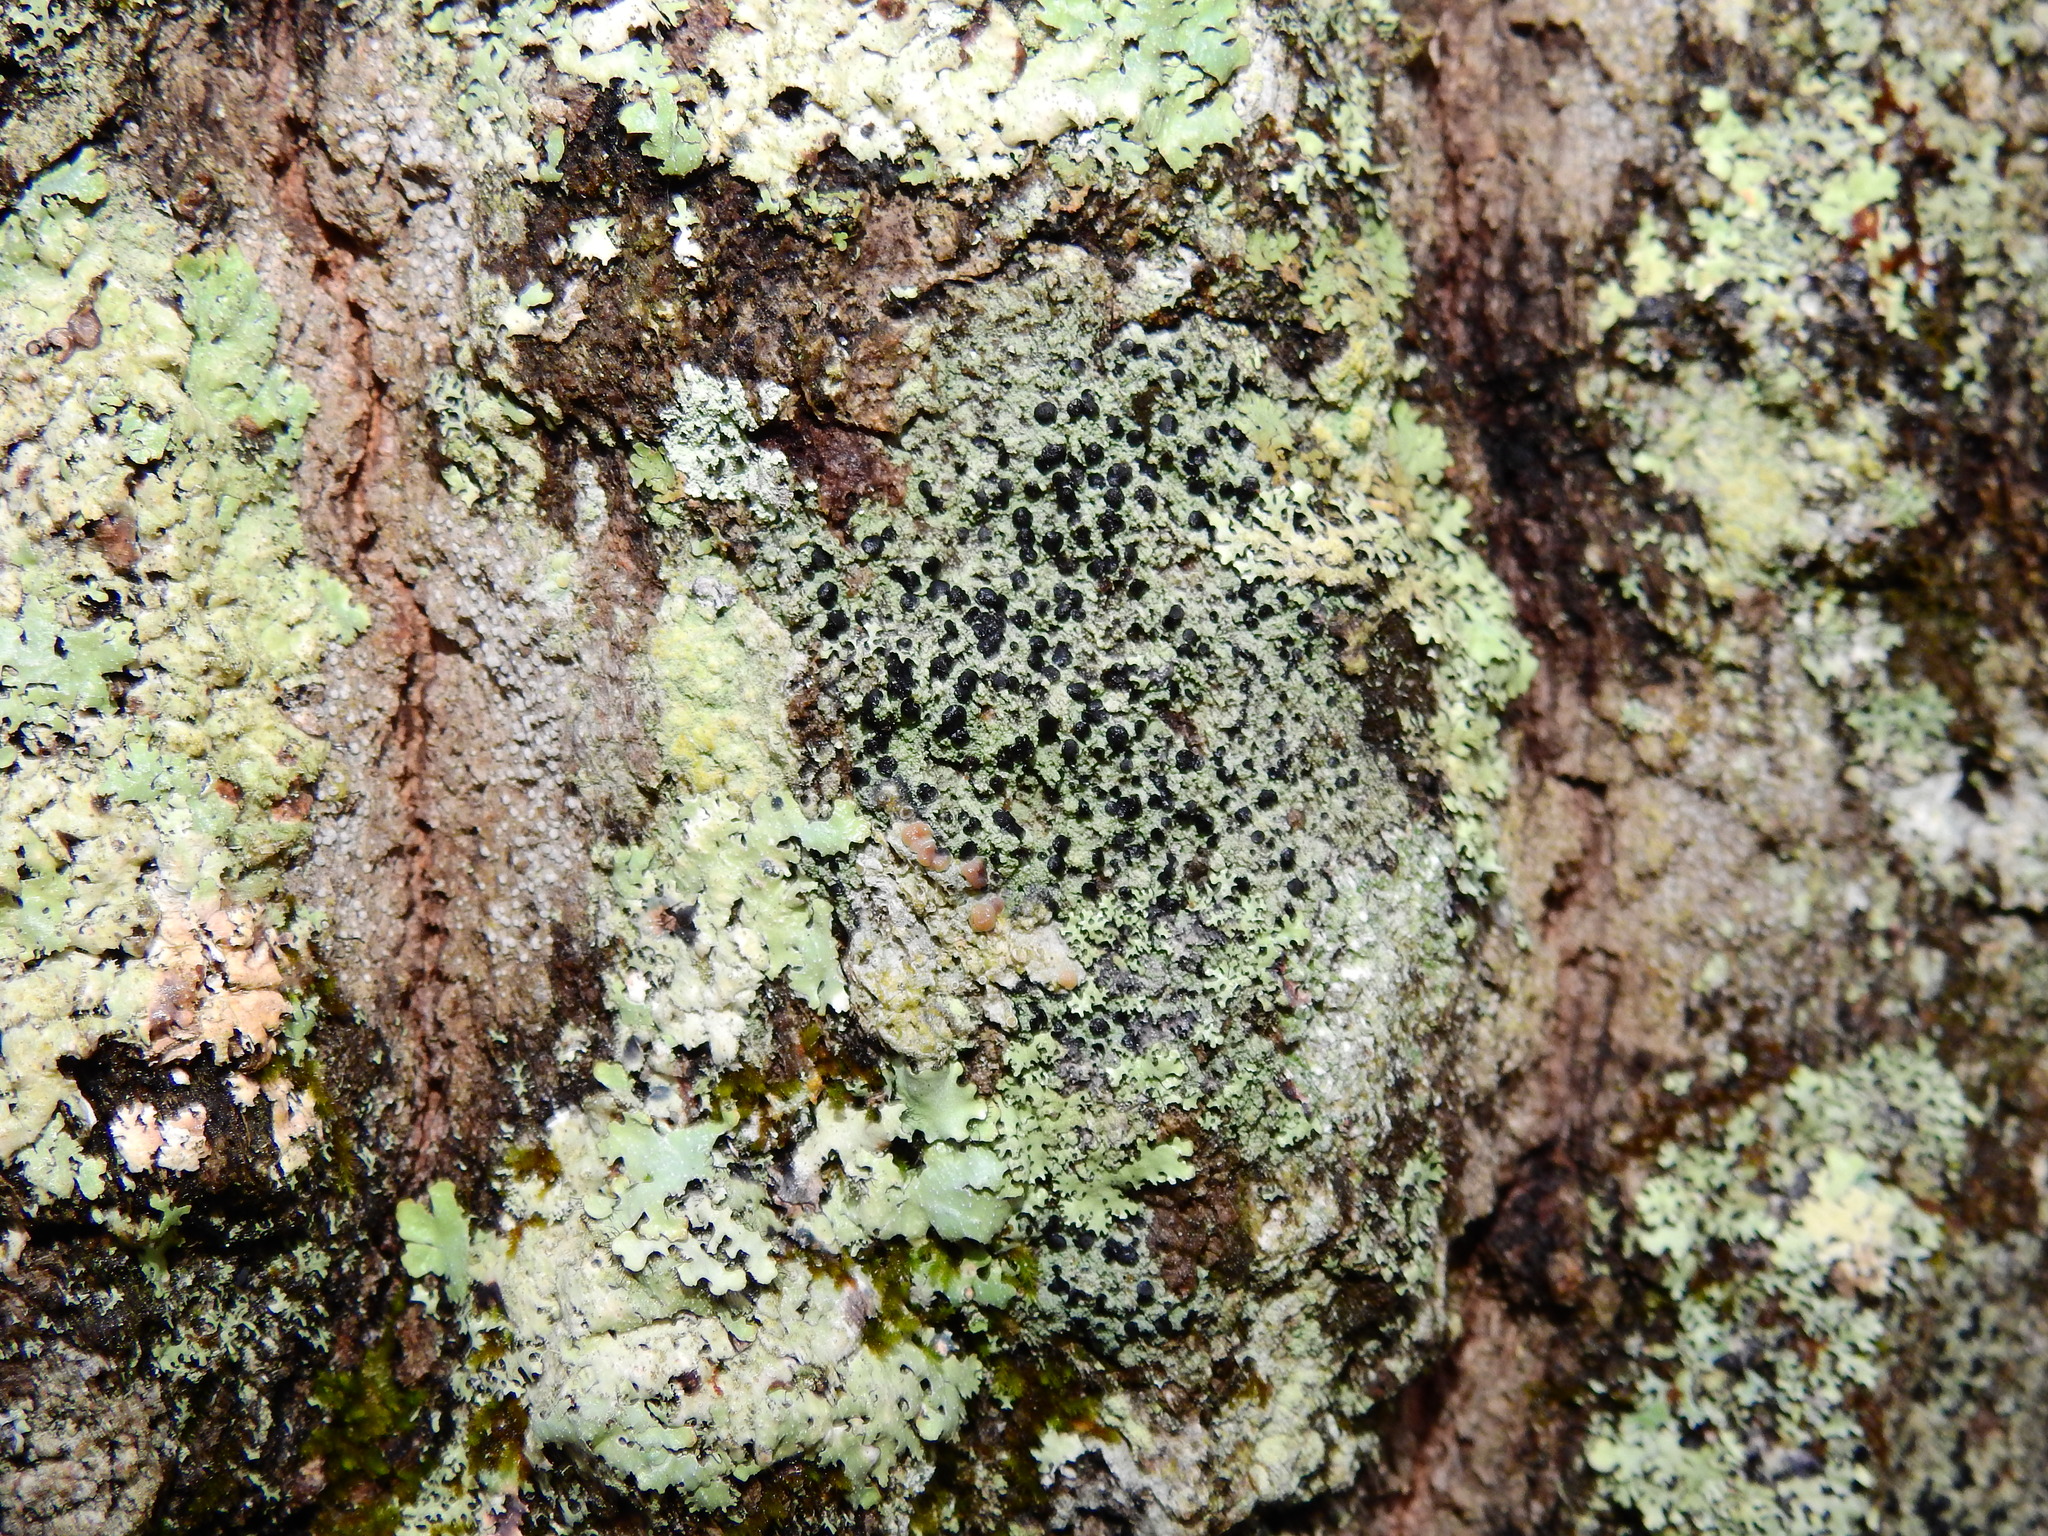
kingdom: Fungi
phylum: Ascomycota
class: Lecanoromycetes
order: Lecanorales
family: Ramalinaceae
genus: Bacidia
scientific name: Bacidia schweinitzii
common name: Surprise lichen
